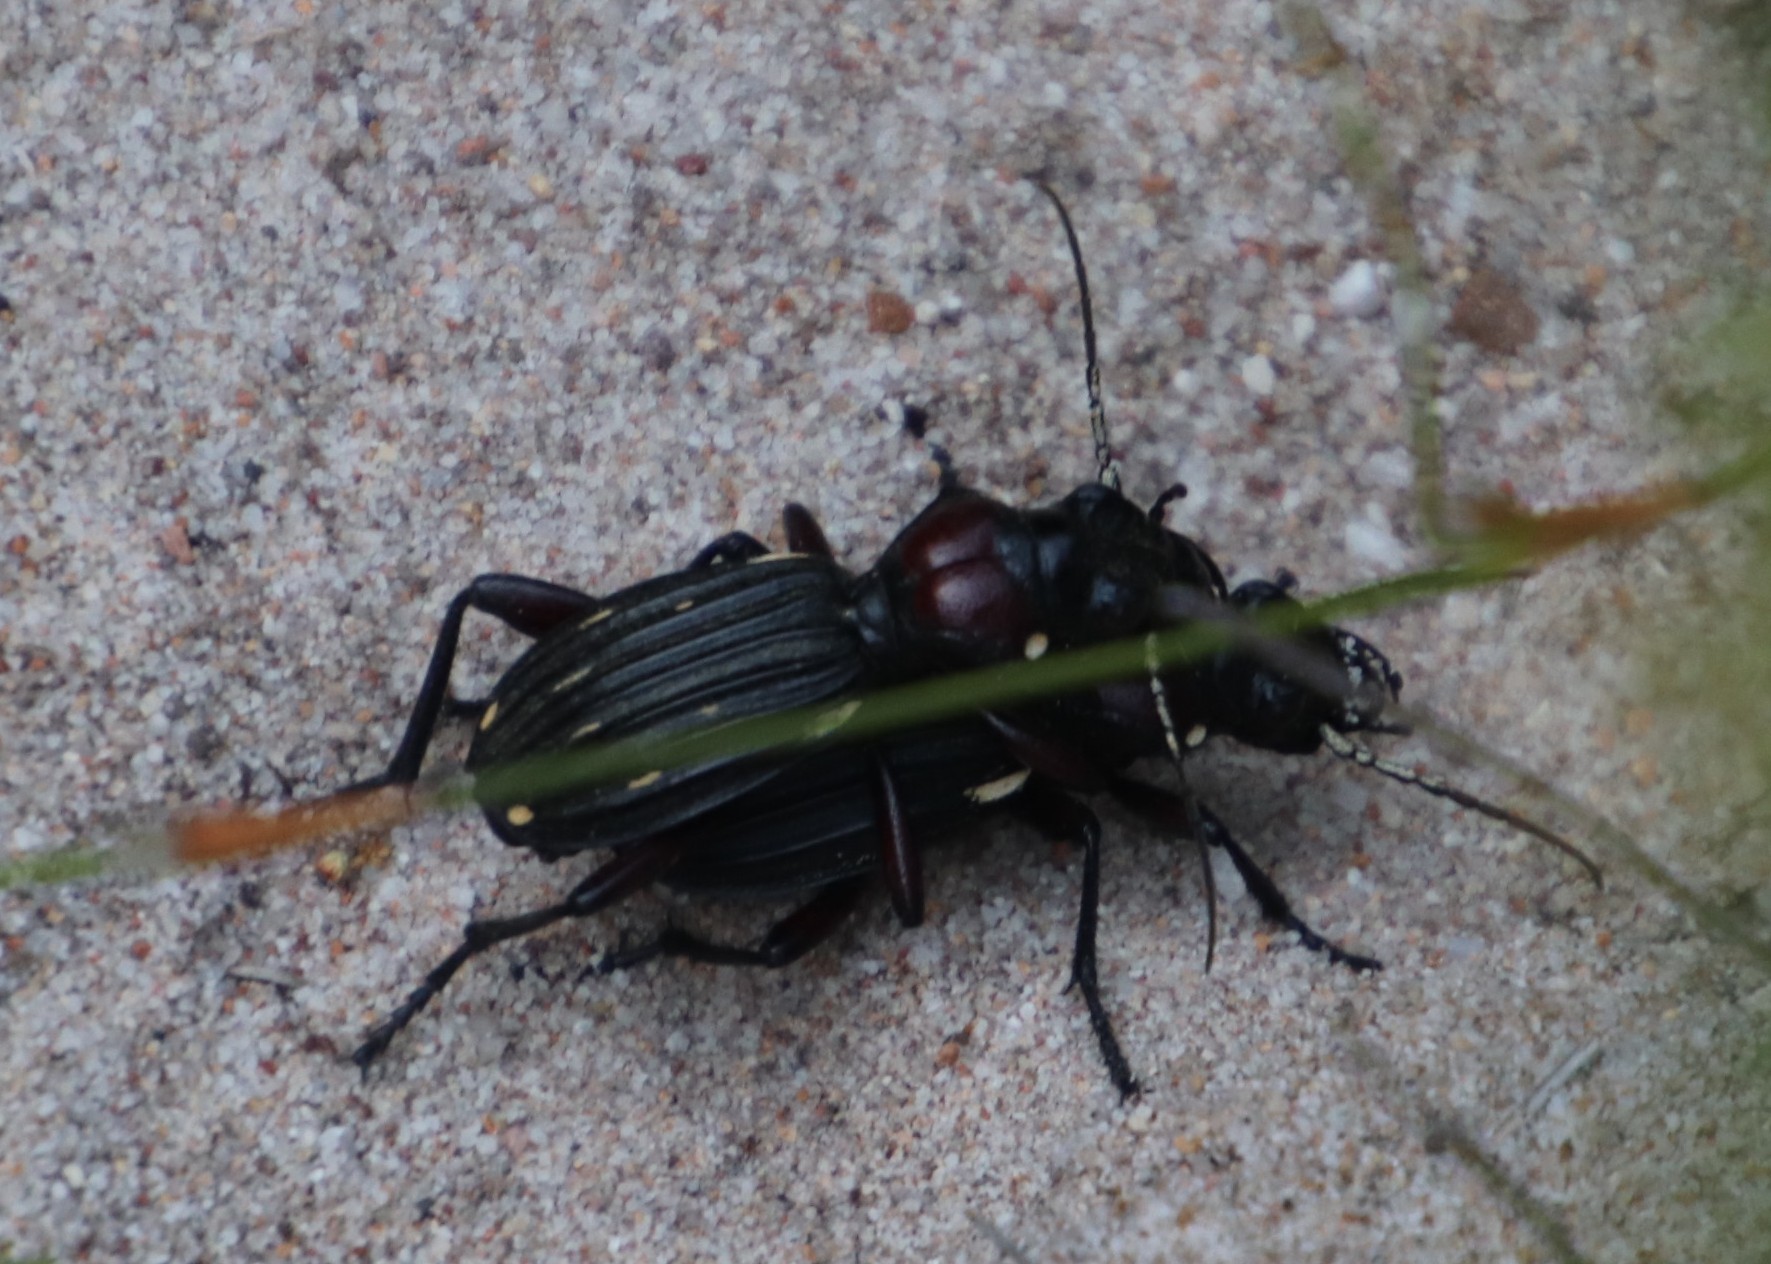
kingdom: Animalia
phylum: Arthropoda
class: Insecta
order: Coleoptera
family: Carabidae
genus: Anthia
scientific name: Anthia decemguttata
